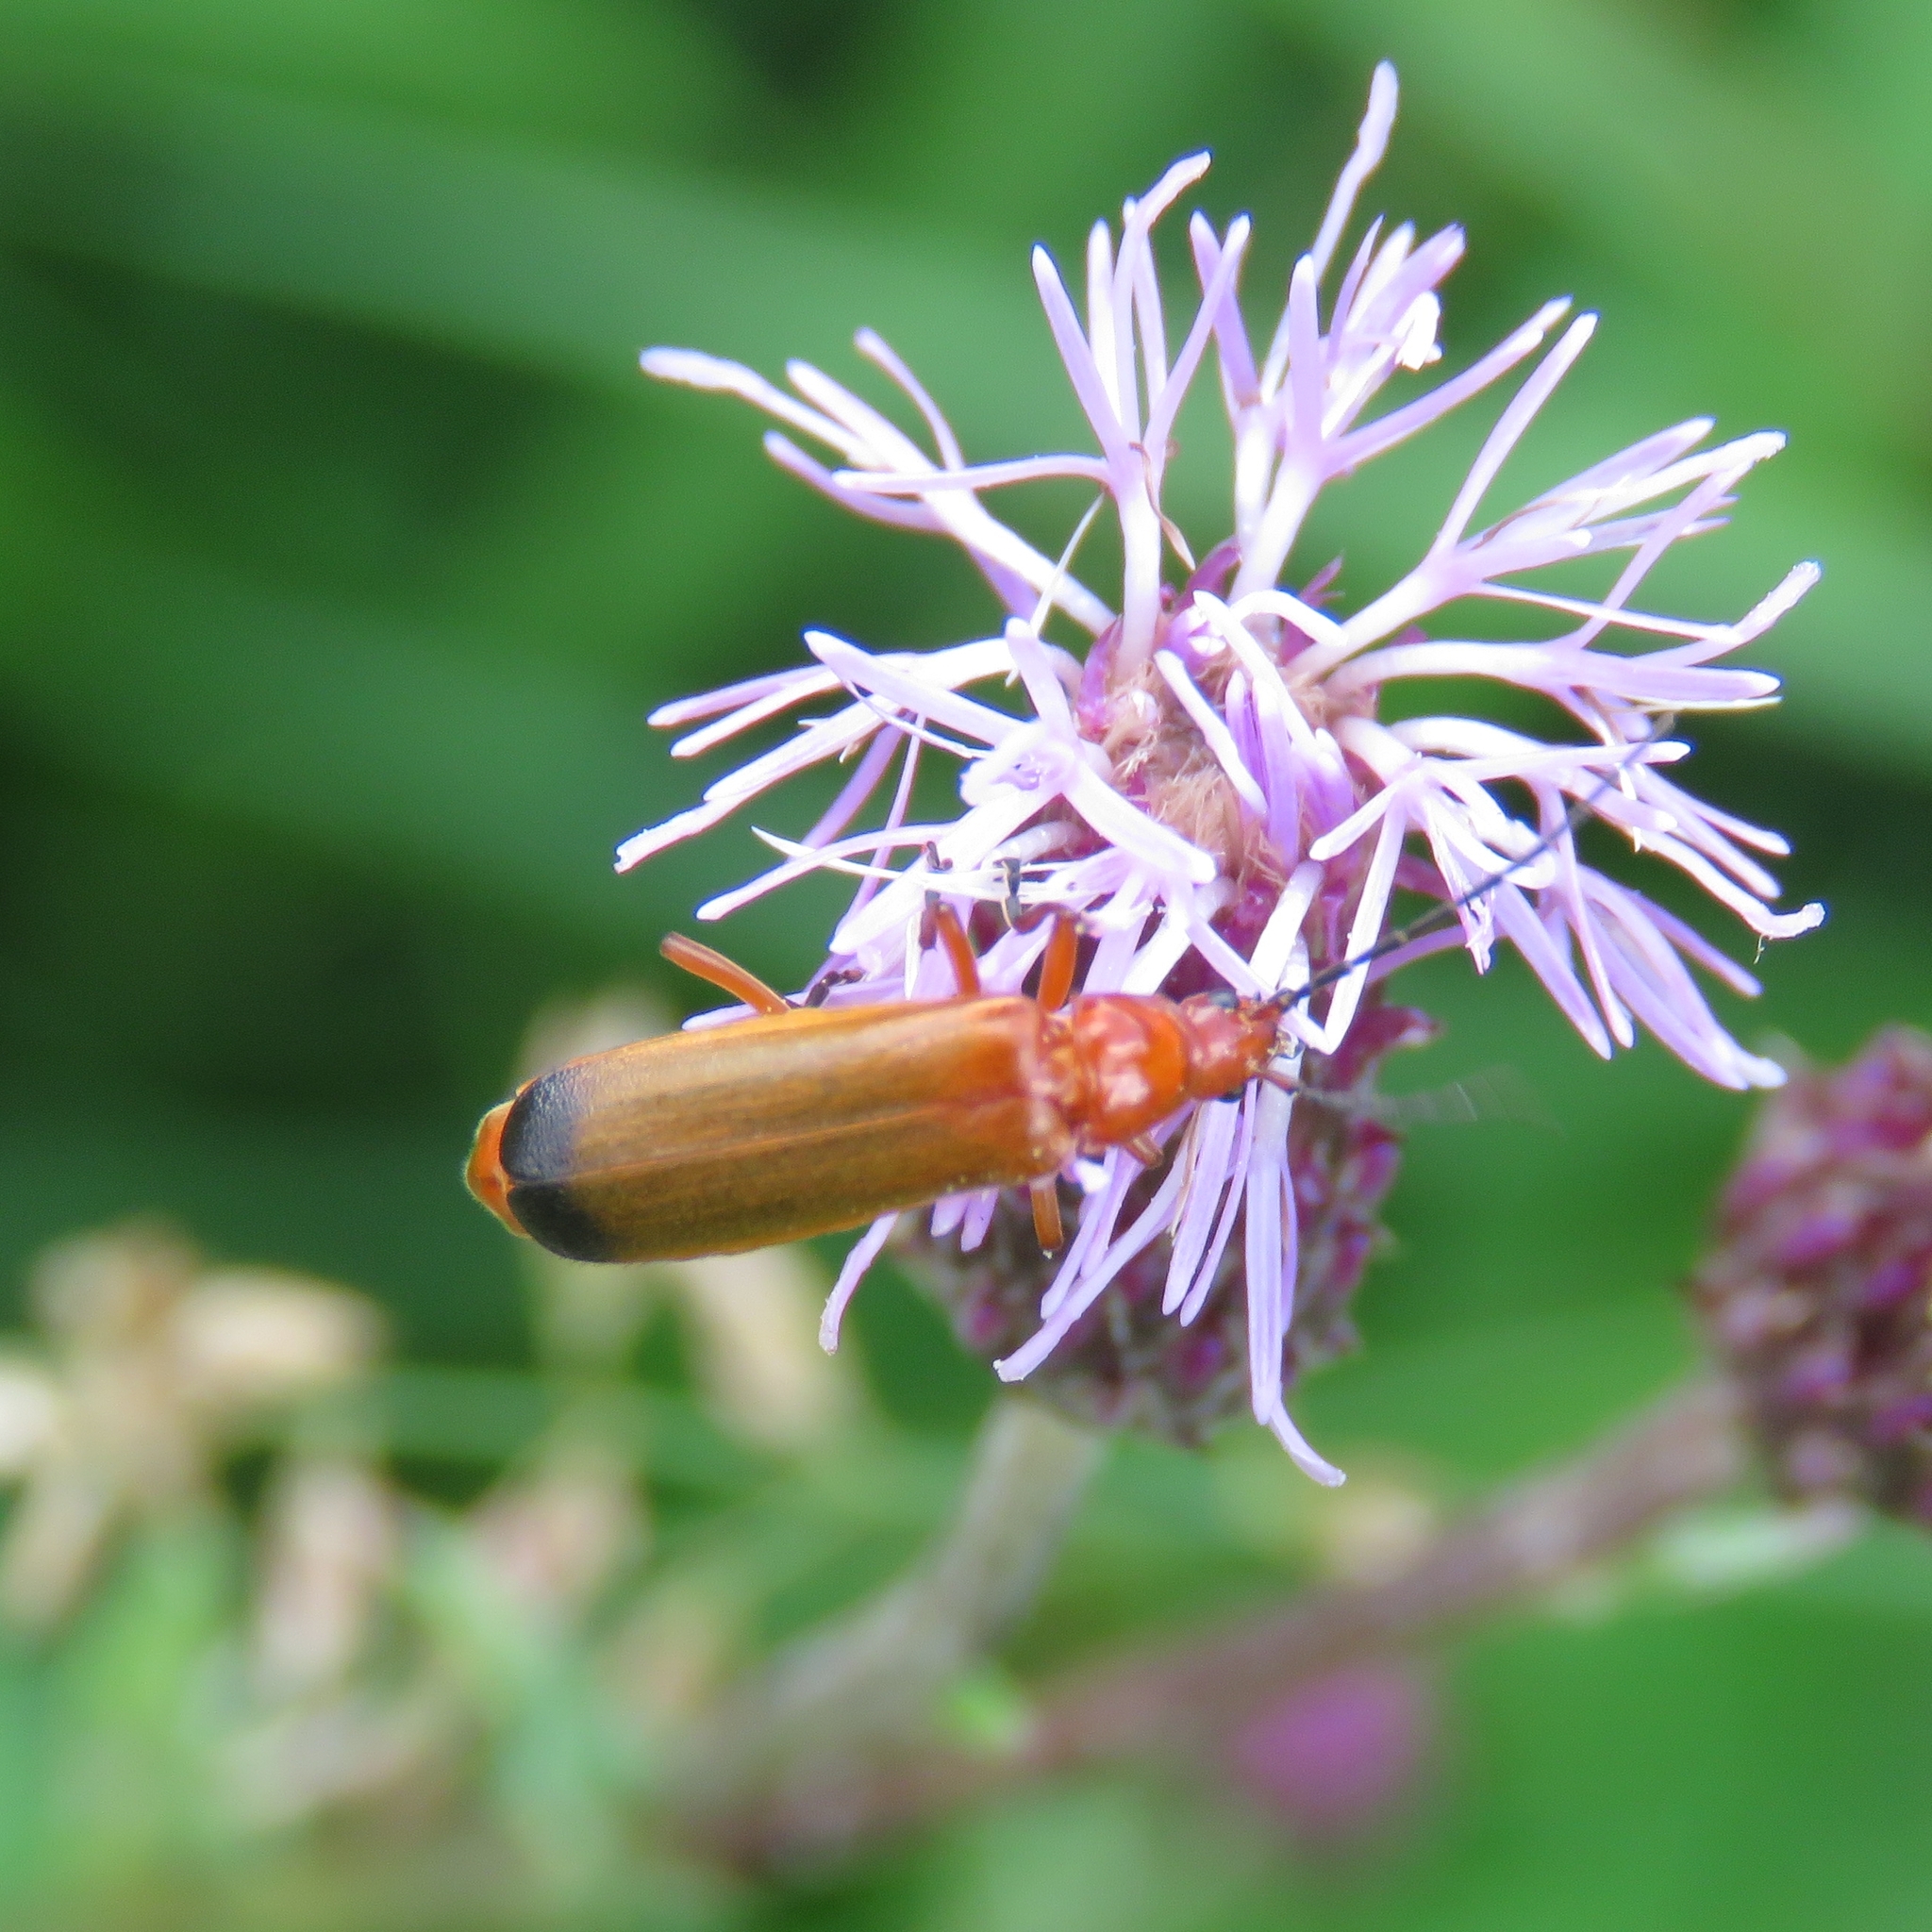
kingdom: Animalia
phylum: Arthropoda
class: Insecta
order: Coleoptera
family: Cantharidae
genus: Rhagonycha
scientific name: Rhagonycha fulva
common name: Common red soldier beetle
